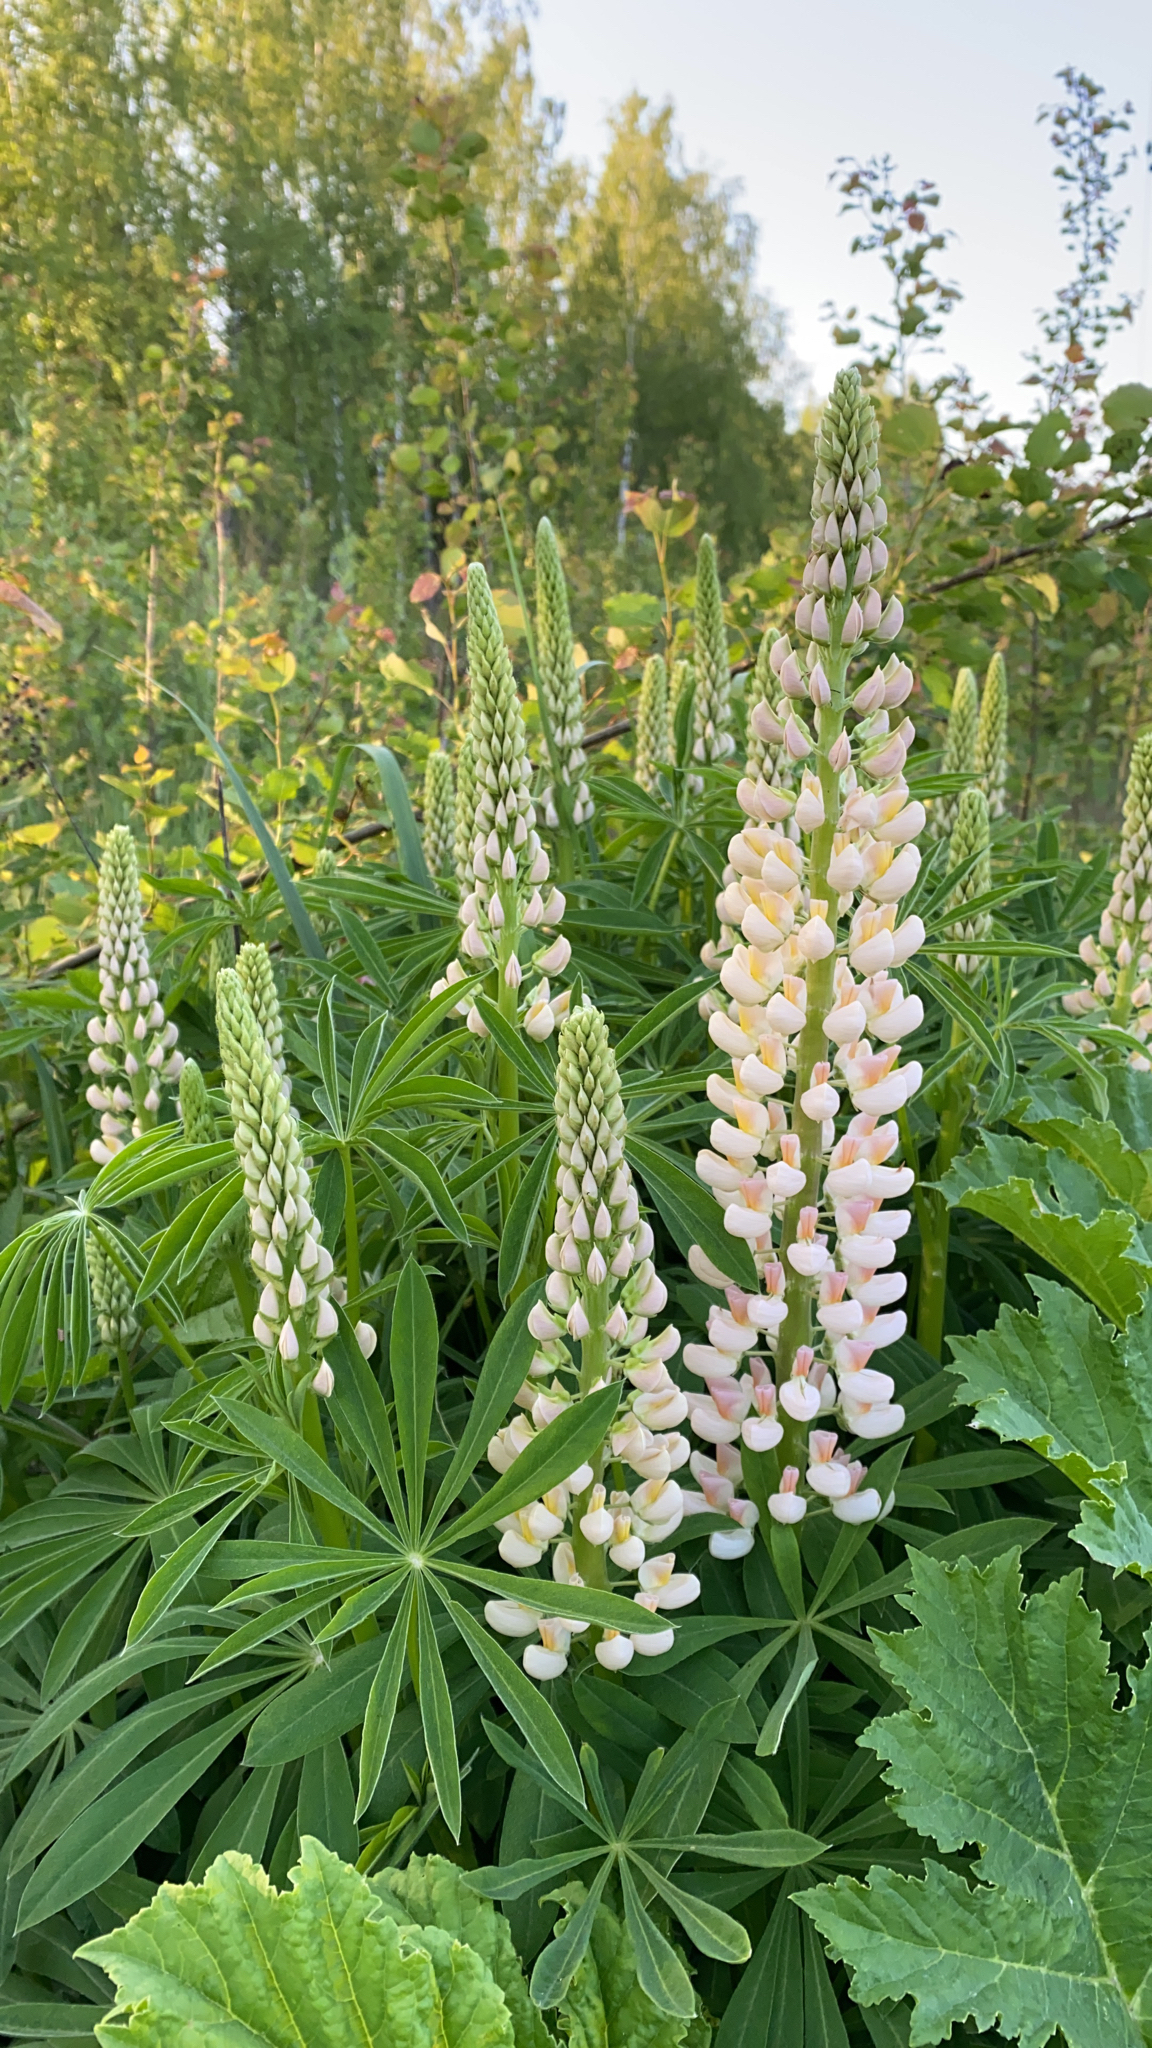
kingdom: Plantae
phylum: Tracheophyta
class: Magnoliopsida
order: Fabales
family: Fabaceae
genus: Lupinus
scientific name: Lupinus polyphyllus
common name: Garden lupin
